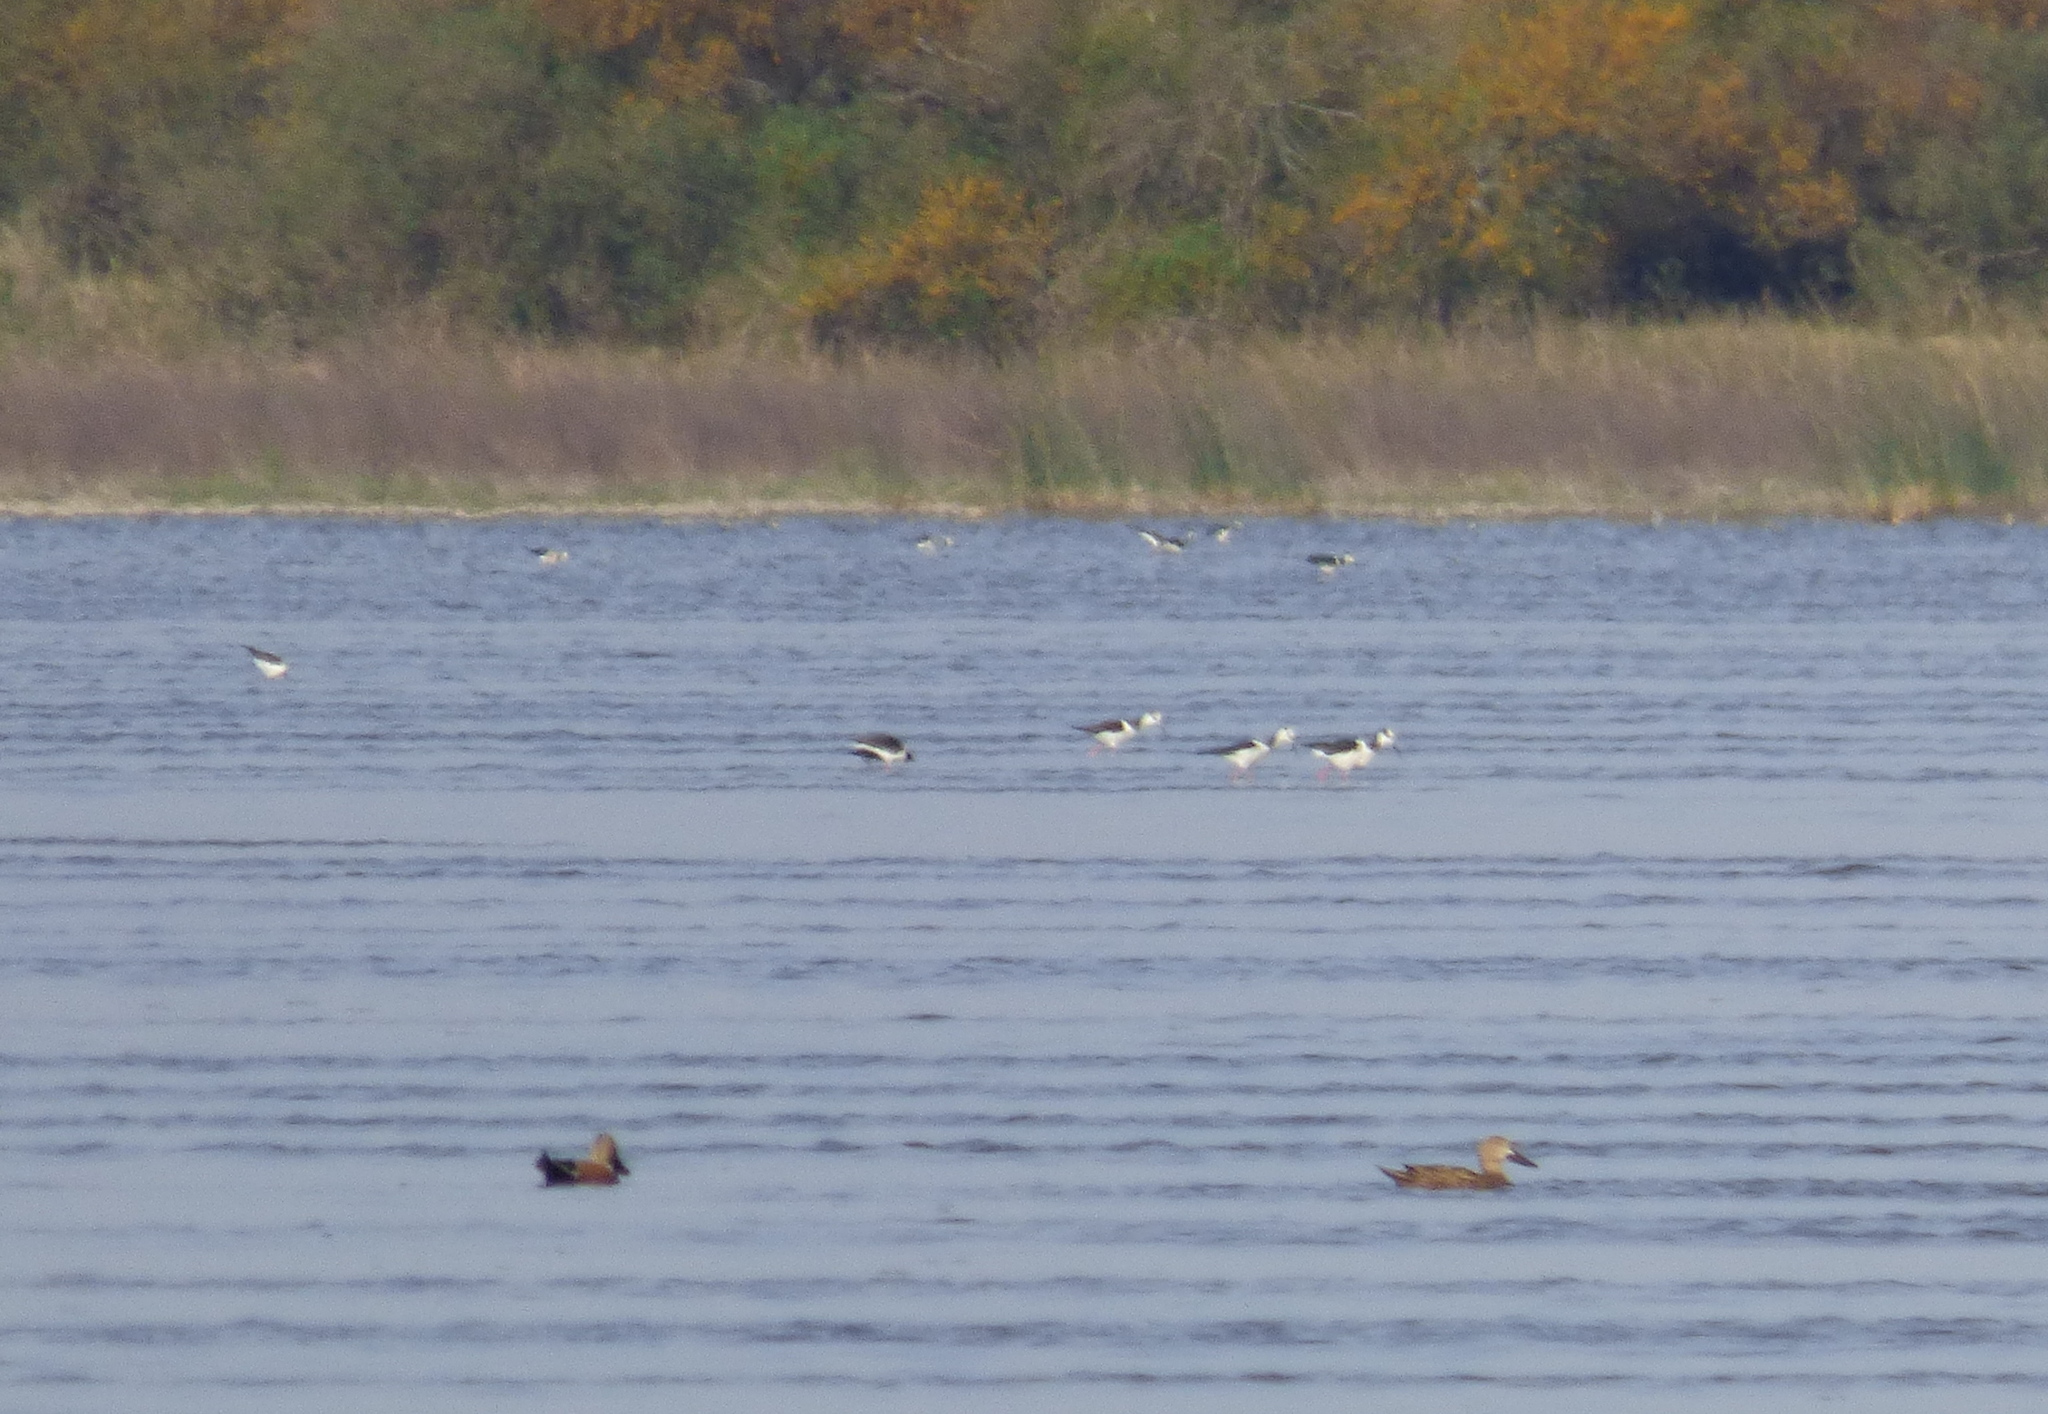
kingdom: Animalia
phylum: Chordata
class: Aves
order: Anseriformes
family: Anatidae
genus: Spatula
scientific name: Spatula platalea
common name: Red shoveler
